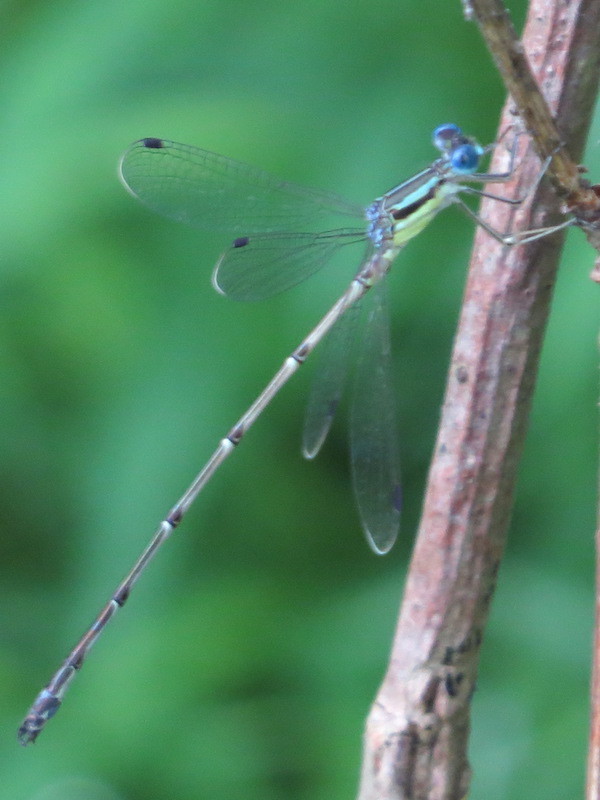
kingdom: Animalia
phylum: Arthropoda
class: Insecta
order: Odonata
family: Lestidae
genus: Lestes
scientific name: Lestes rectangularis
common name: Slender spreadwing
